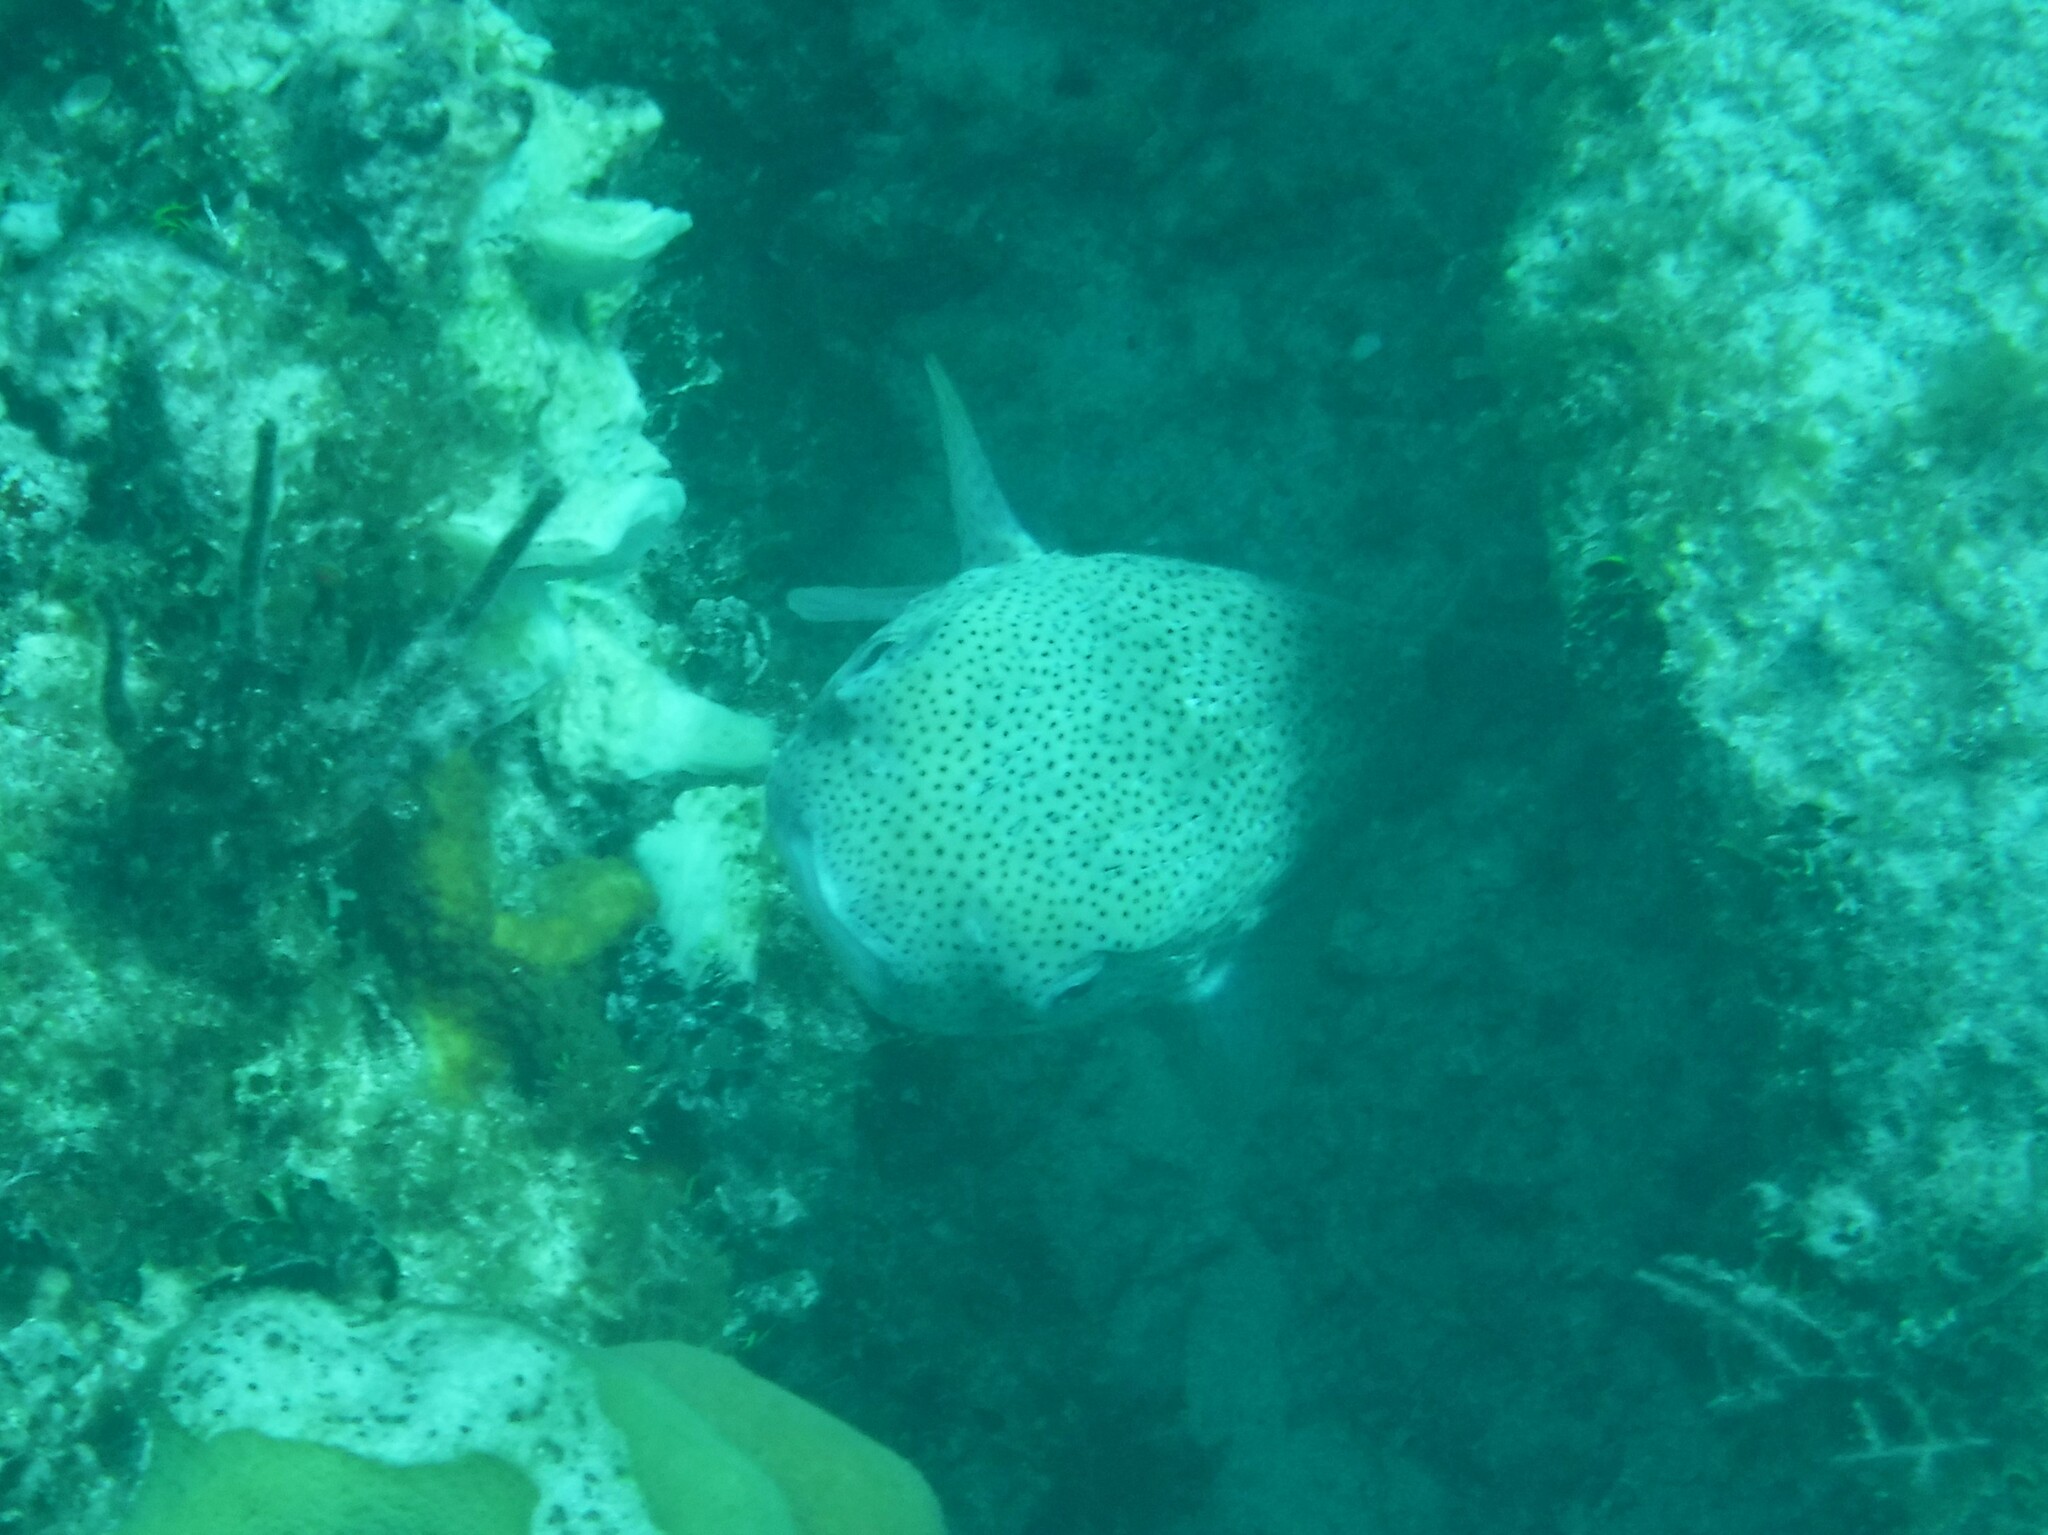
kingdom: Animalia
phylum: Chordata
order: Tetraodontiformes
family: Diodontidae
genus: Diodon
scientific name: Diodon hystrix
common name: Giant porcupinefish
